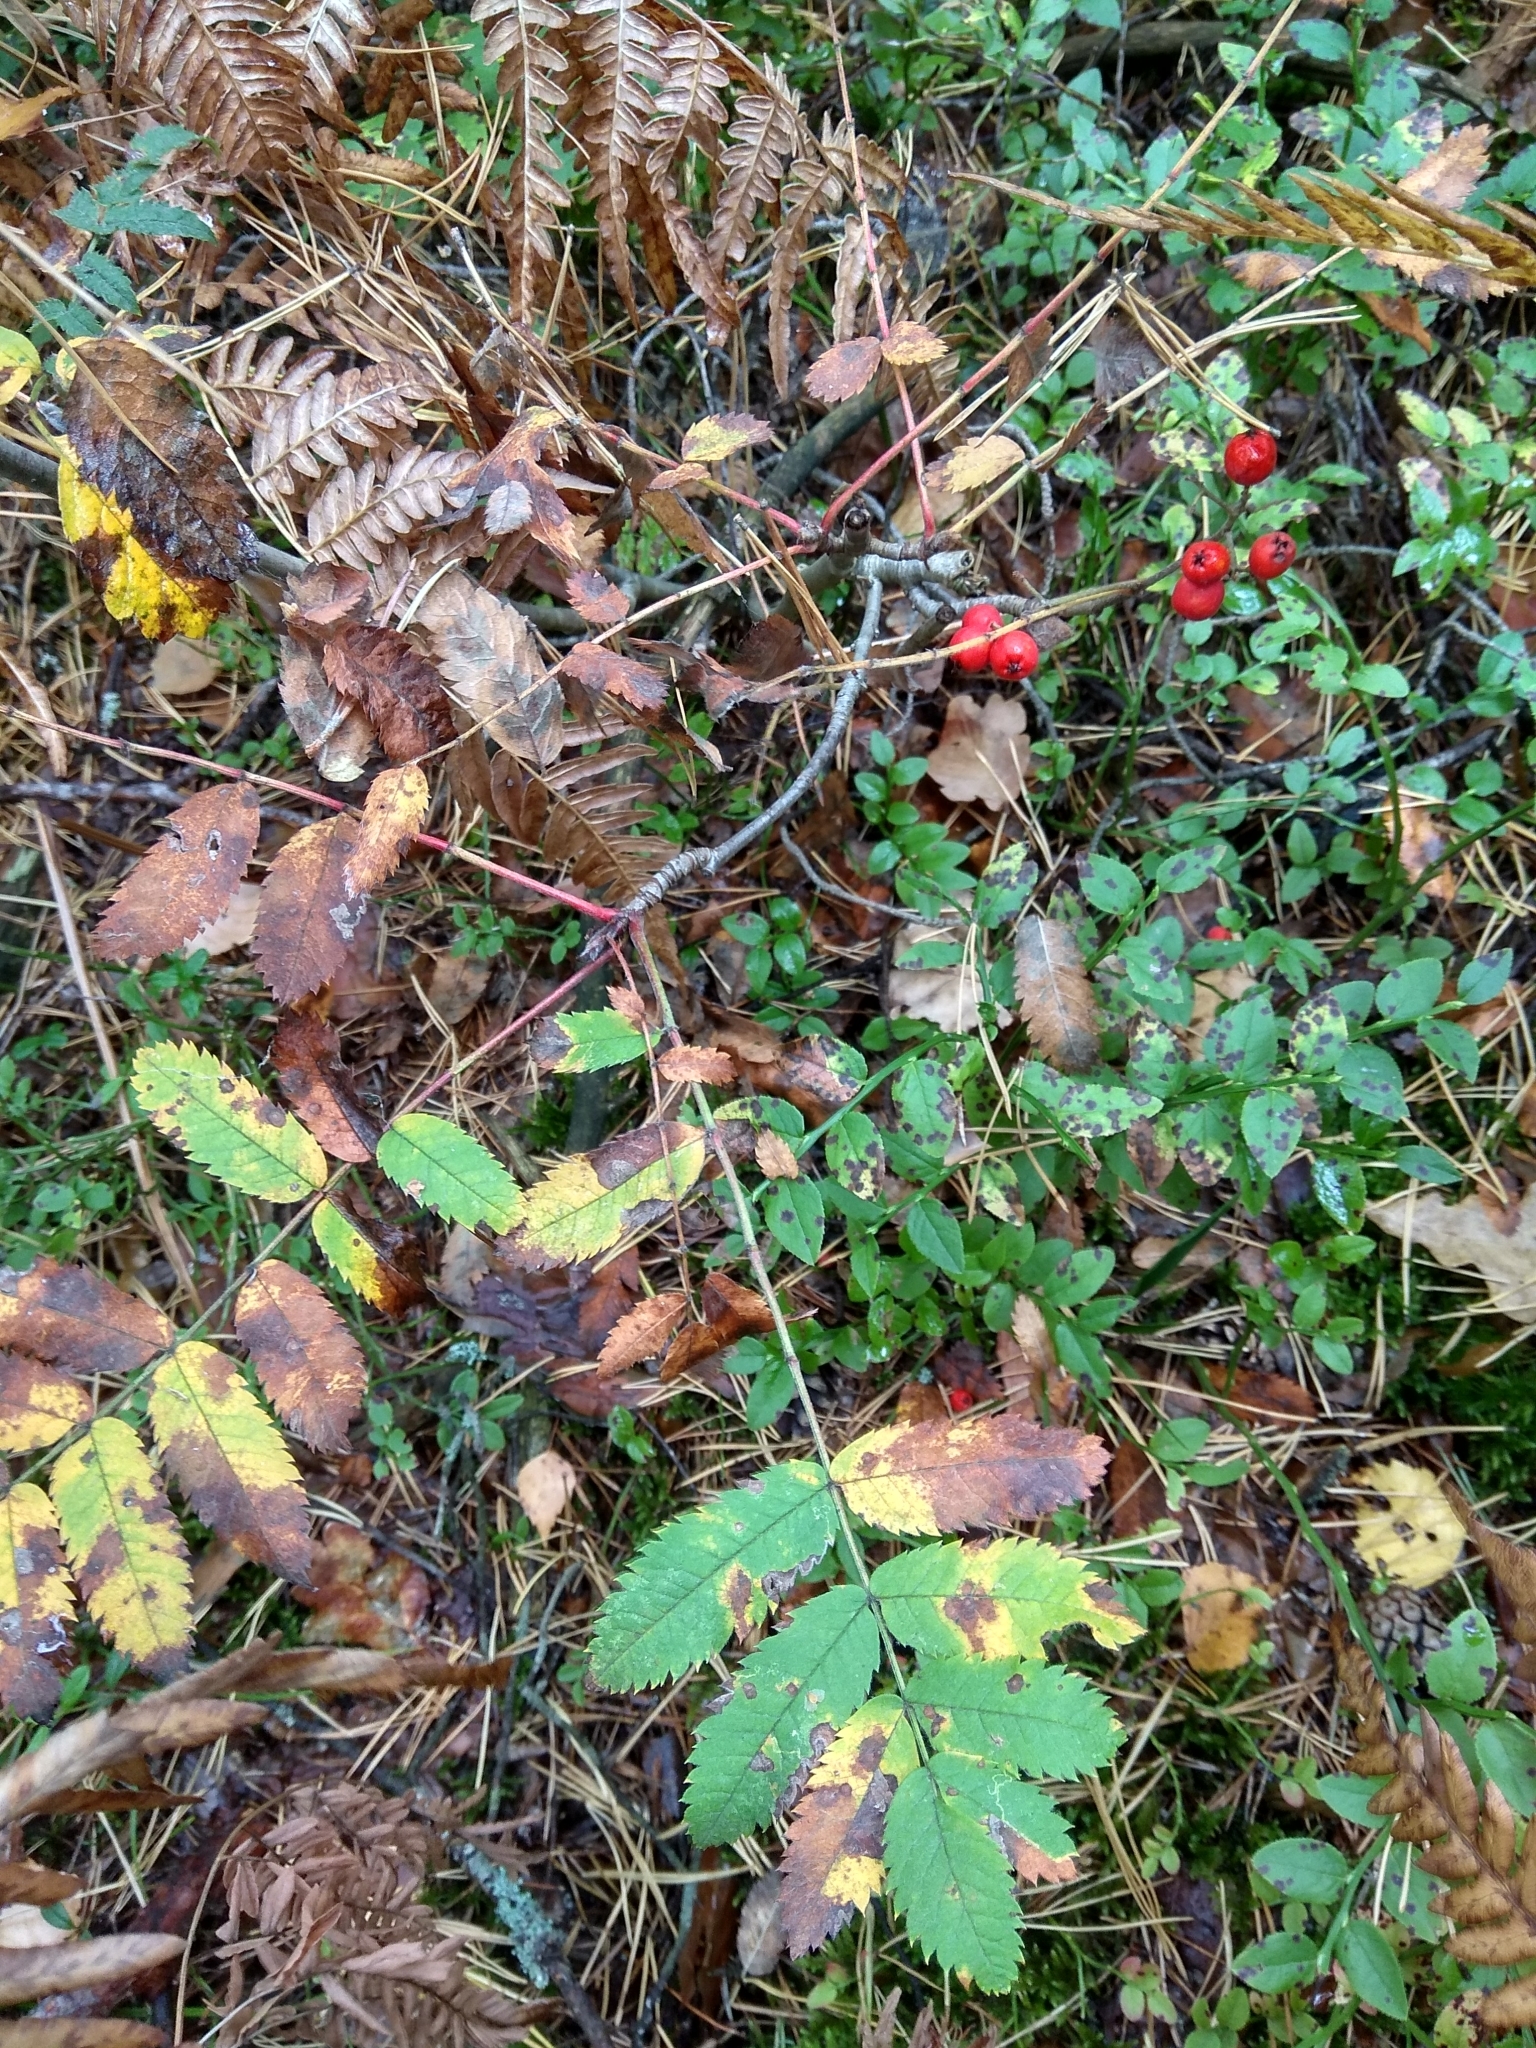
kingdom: Plantae
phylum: Tracheophyta
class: Magnoliopsida
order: Rosales
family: Rosaceae
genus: Sorbus
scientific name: Sorbus aucuparia
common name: Rowan
